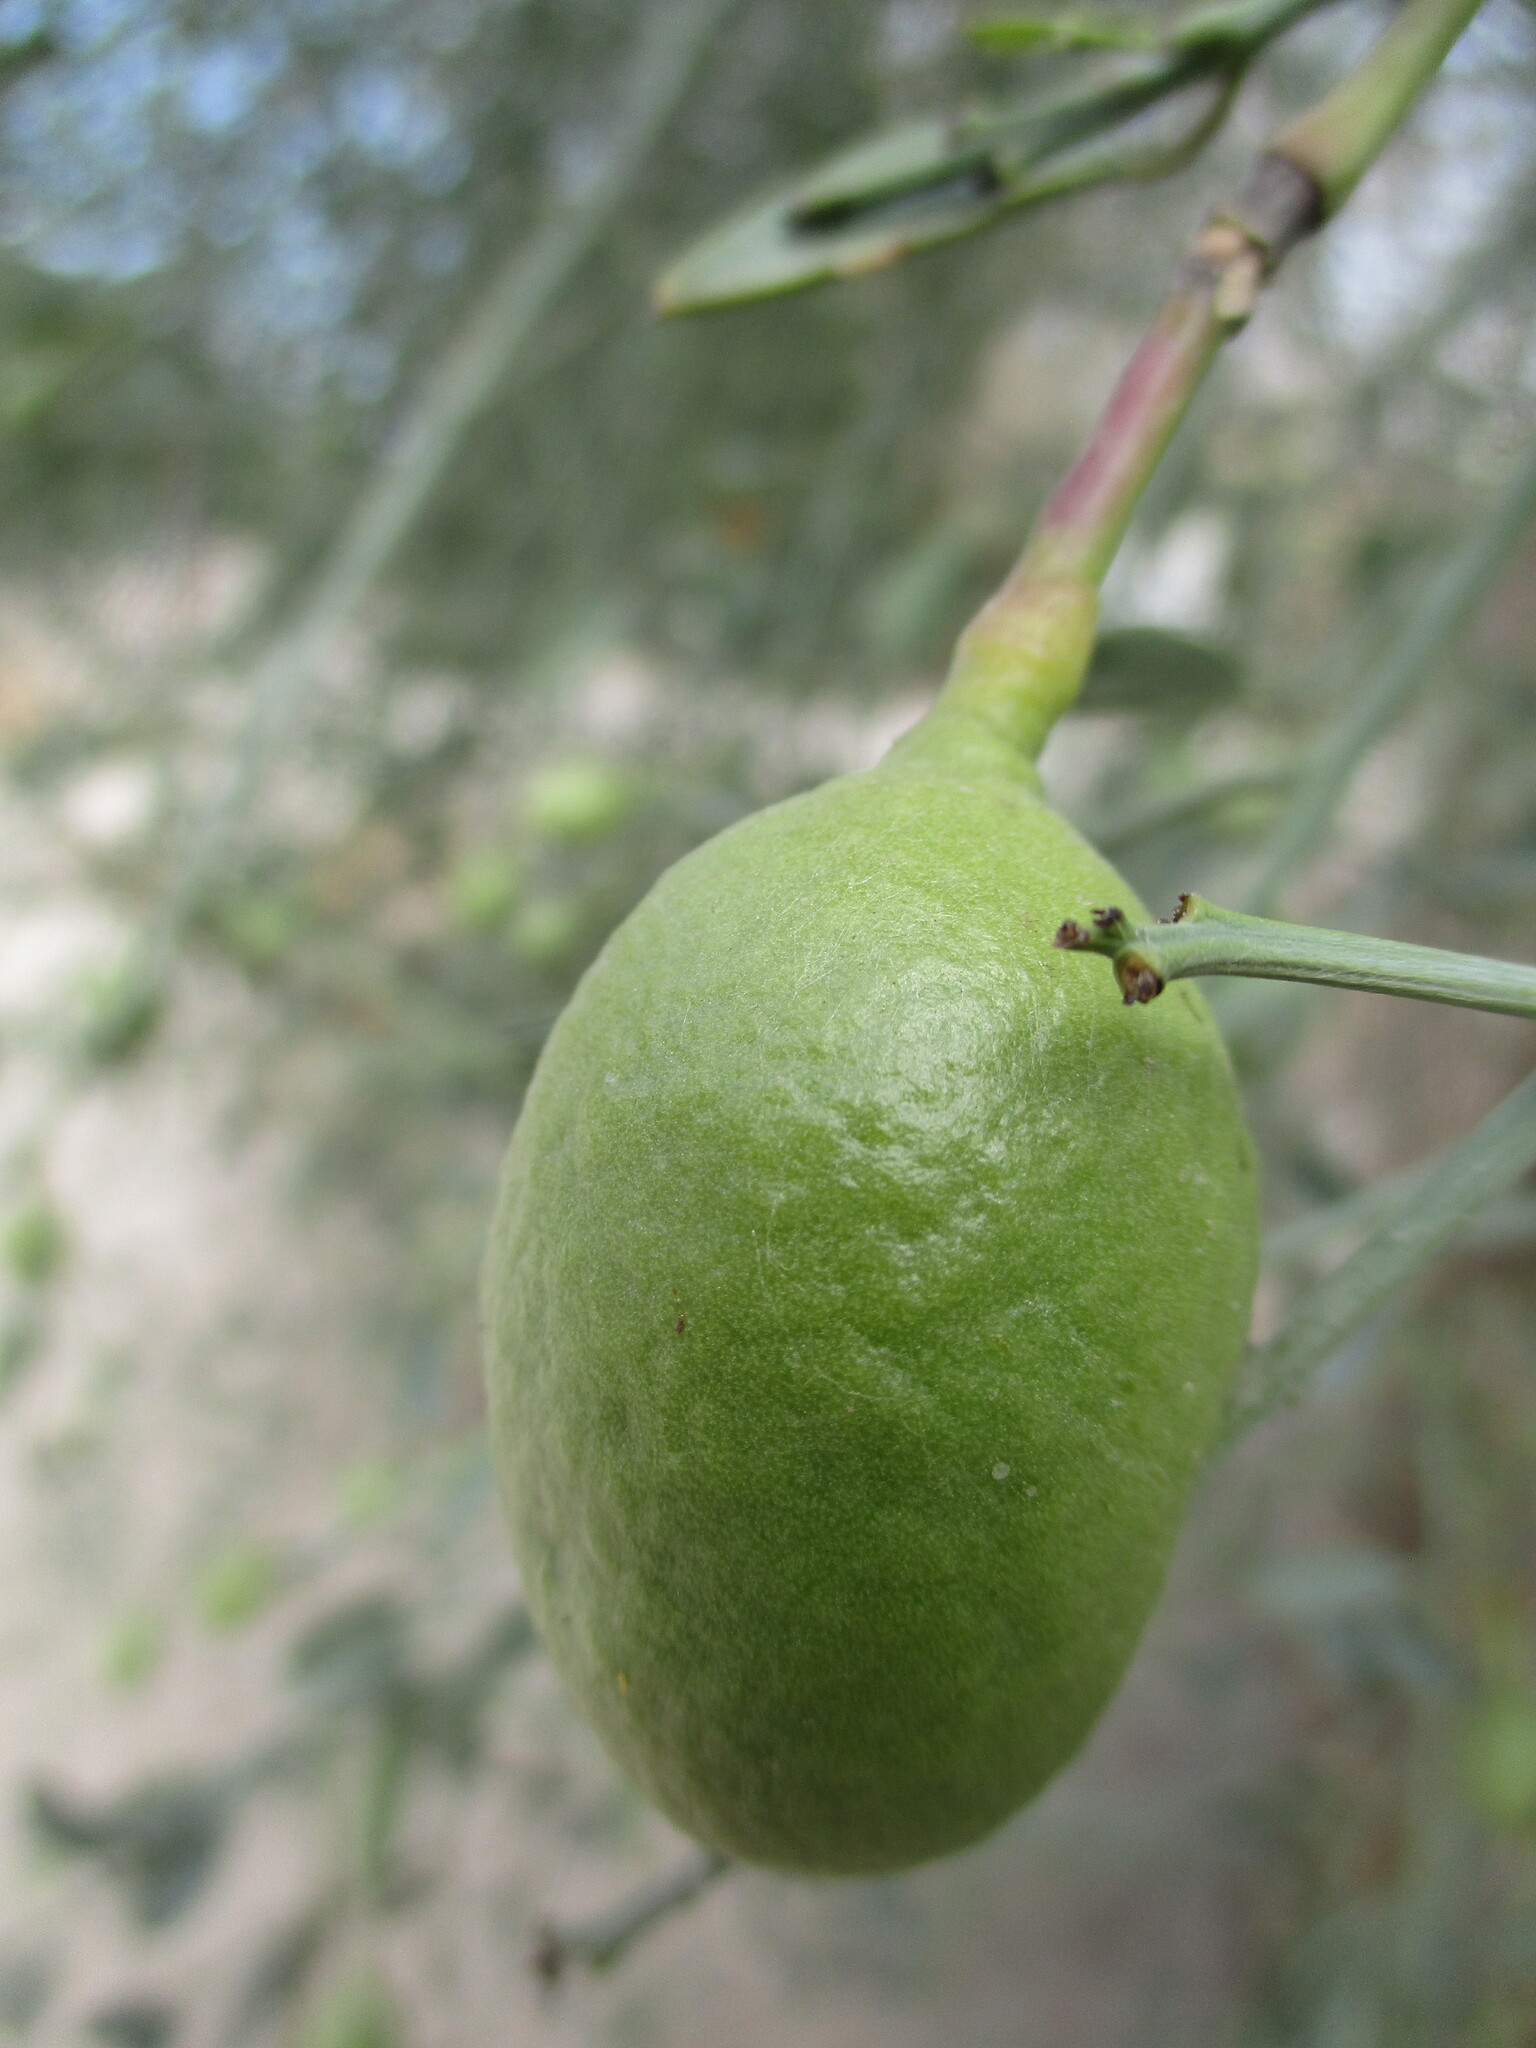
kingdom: Plantae
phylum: Tracheophyta
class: Magnoliopsida
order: Brassicales
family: Capparaceae
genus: Maerua
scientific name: Maerua juncea
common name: Rough-skinned bush cherry
